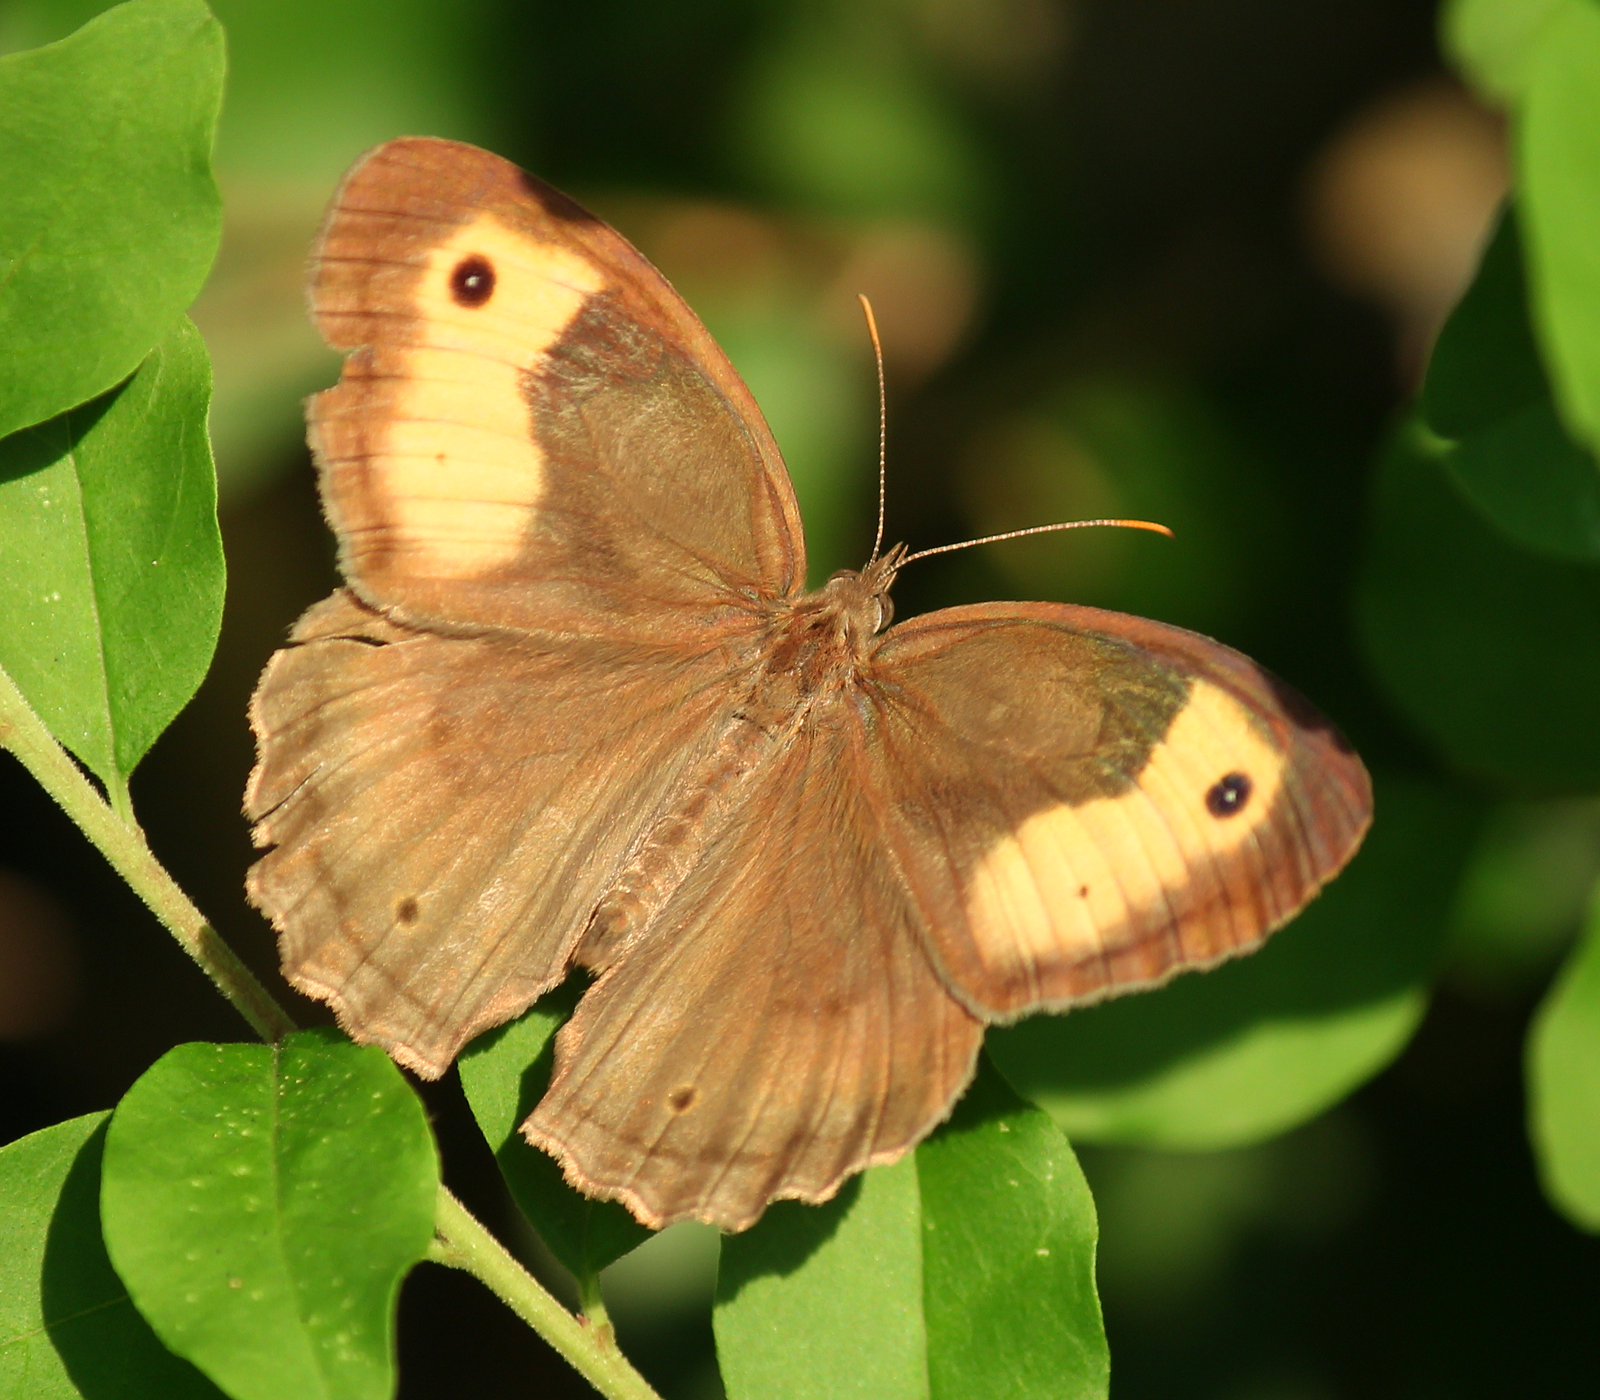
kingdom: Animalia
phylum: Arthropoda
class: Insecta
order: Lepidoptera
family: Nymphalidae
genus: Cercyonis
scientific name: Cercyonis pegala
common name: Common wood-nymph
